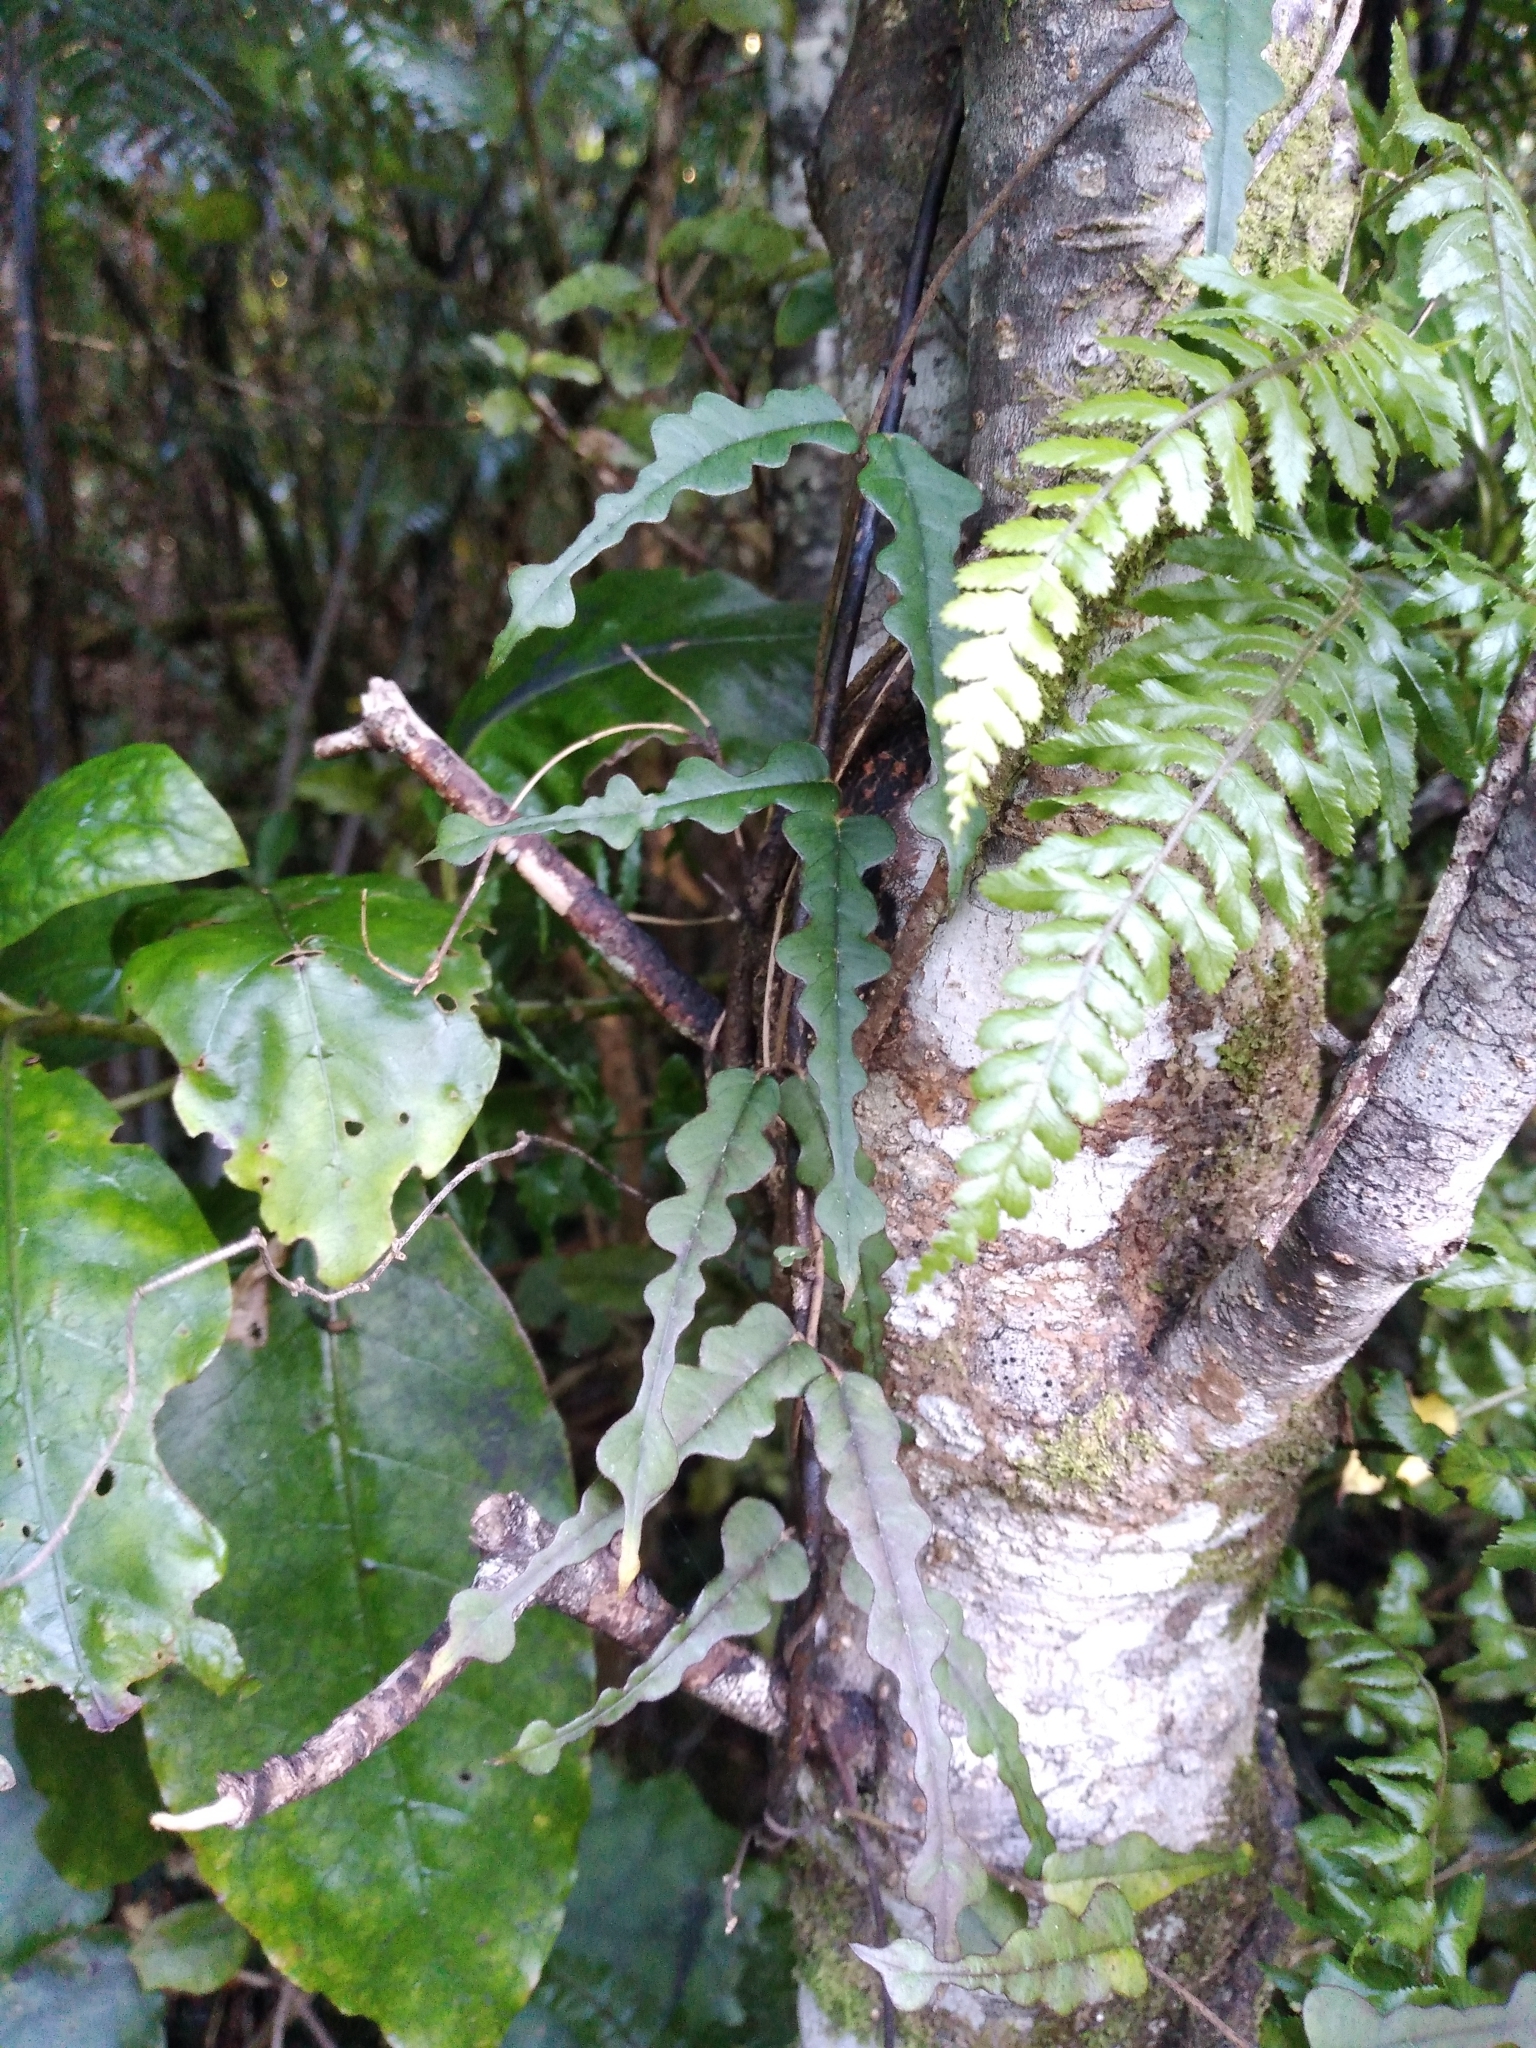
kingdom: Plantae
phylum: Tracheophyta
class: Magnoliopsida
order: Gentianales
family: Apocynaceae
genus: Parsonsia
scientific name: Parsonsia heterophylla
